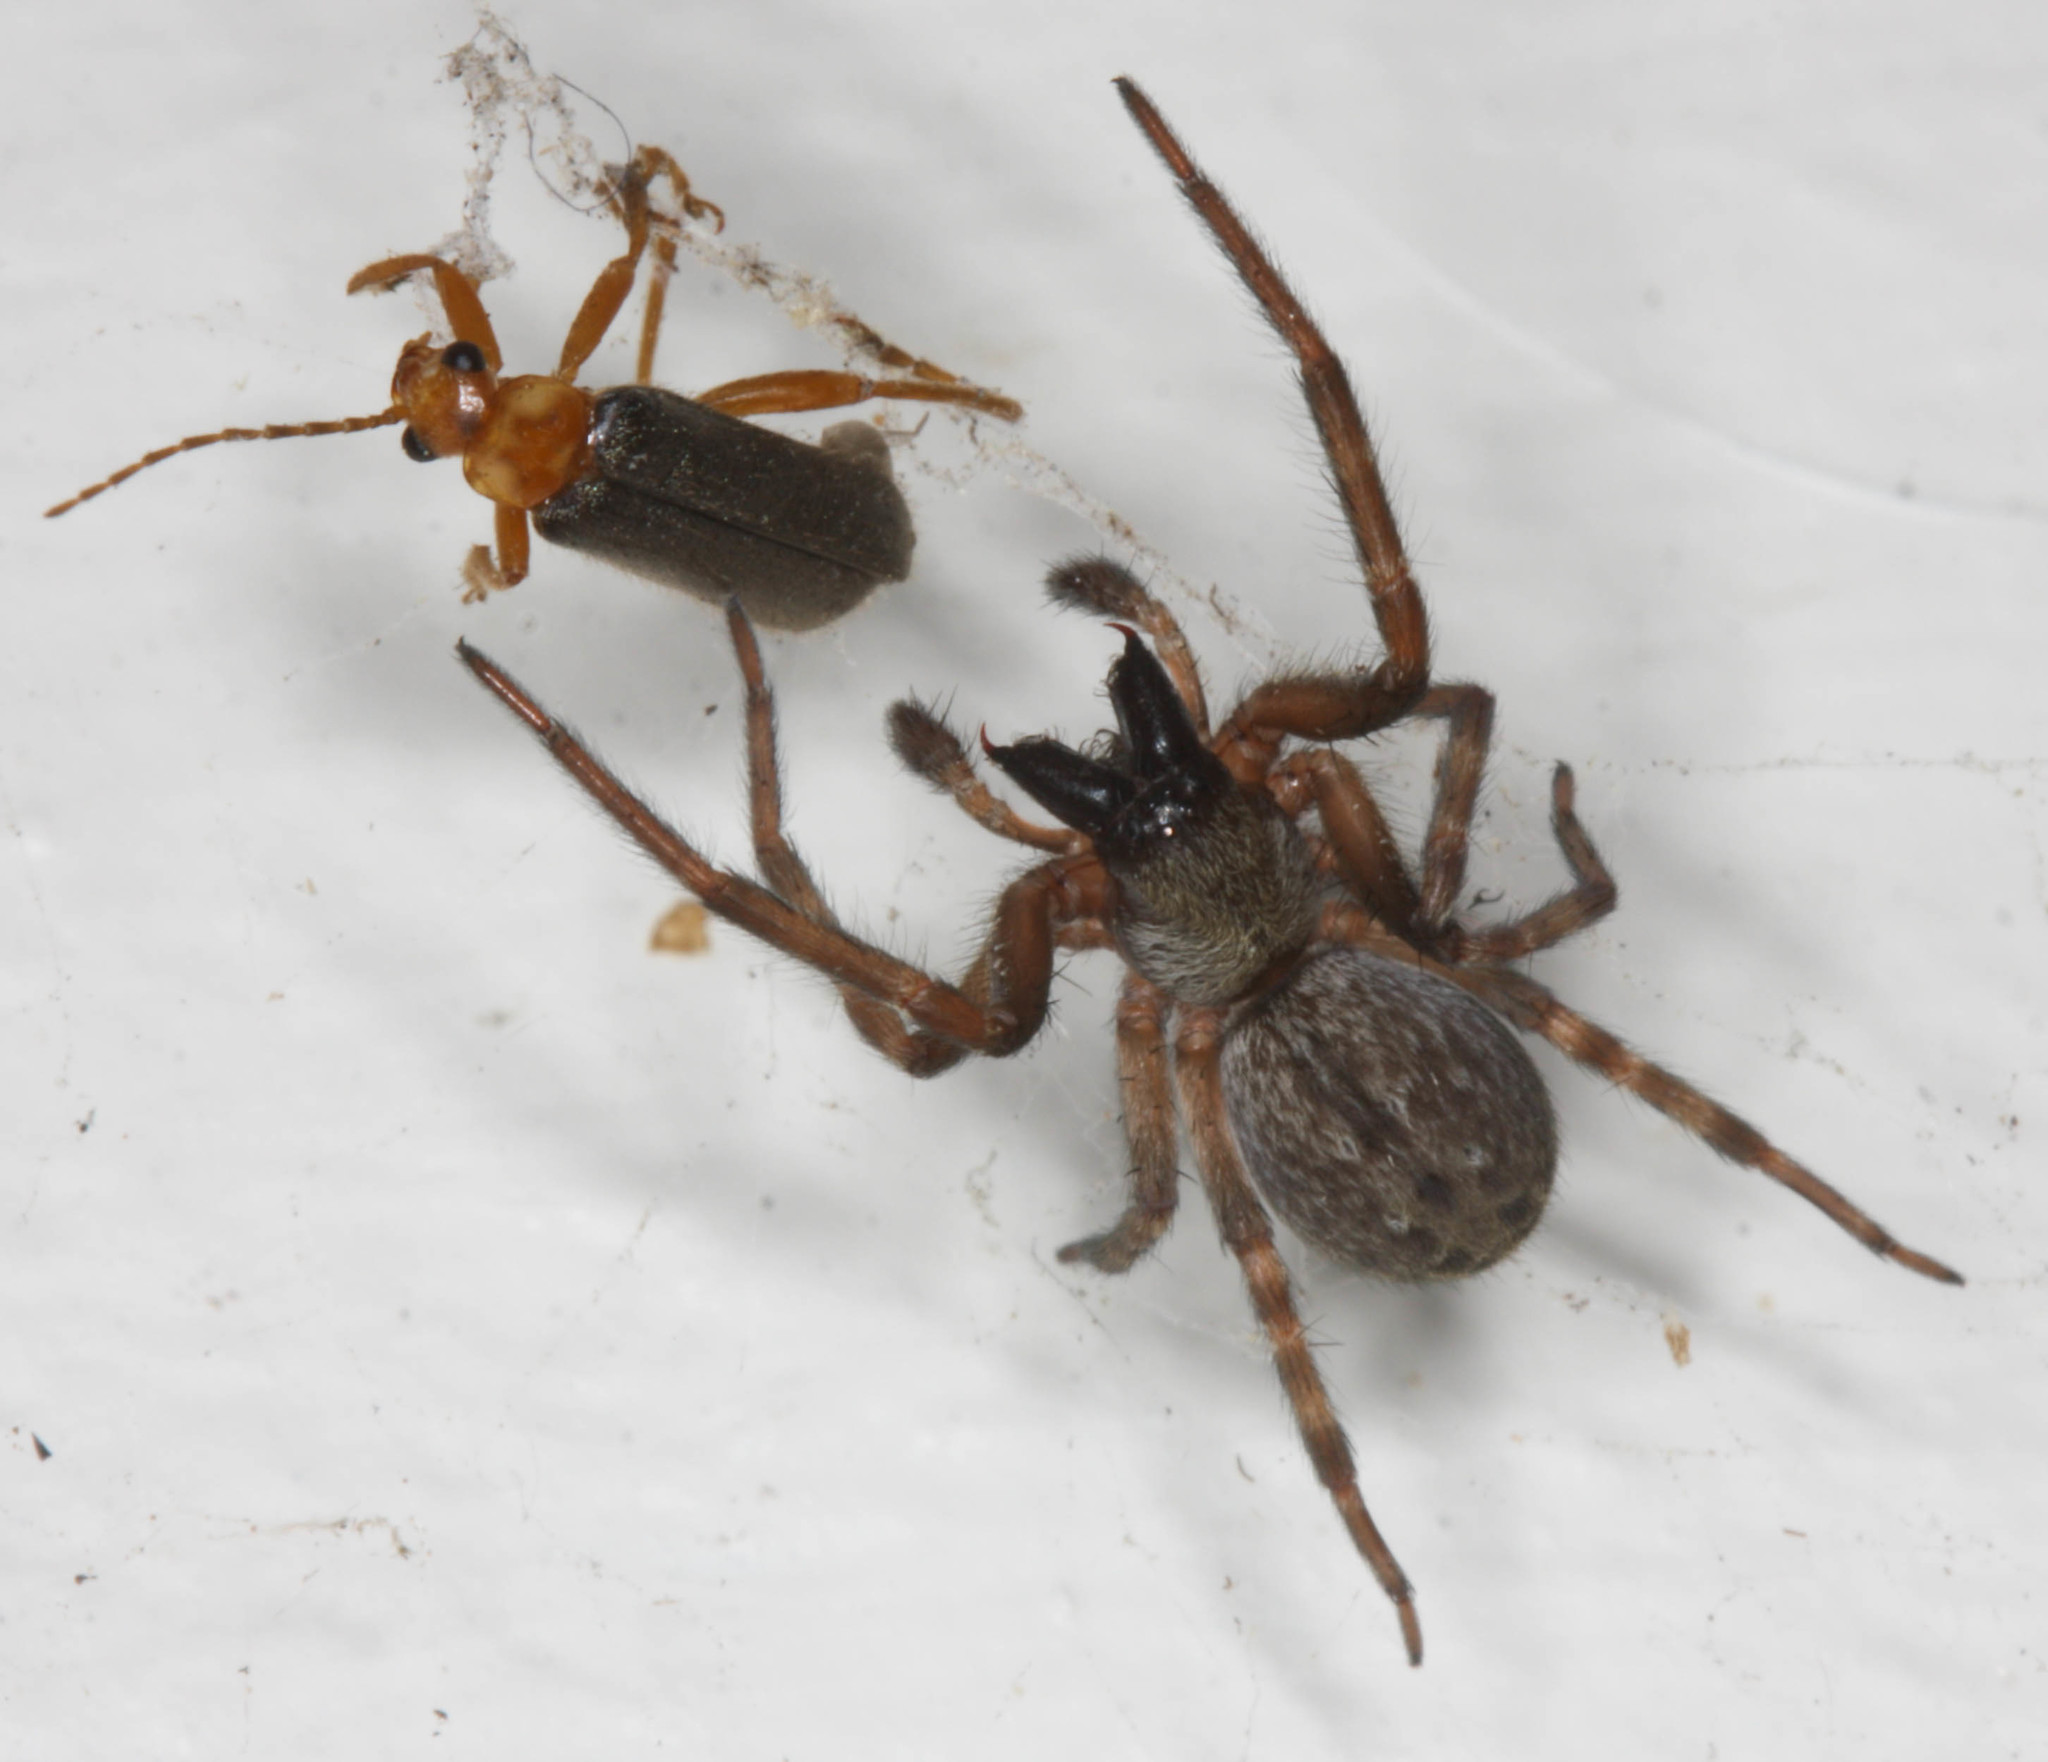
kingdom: Animalia
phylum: Arthropoda
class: Arachnida
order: Araneae
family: Desidae
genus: Badumna
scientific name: Badumna longinqua
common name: Gray house spider
